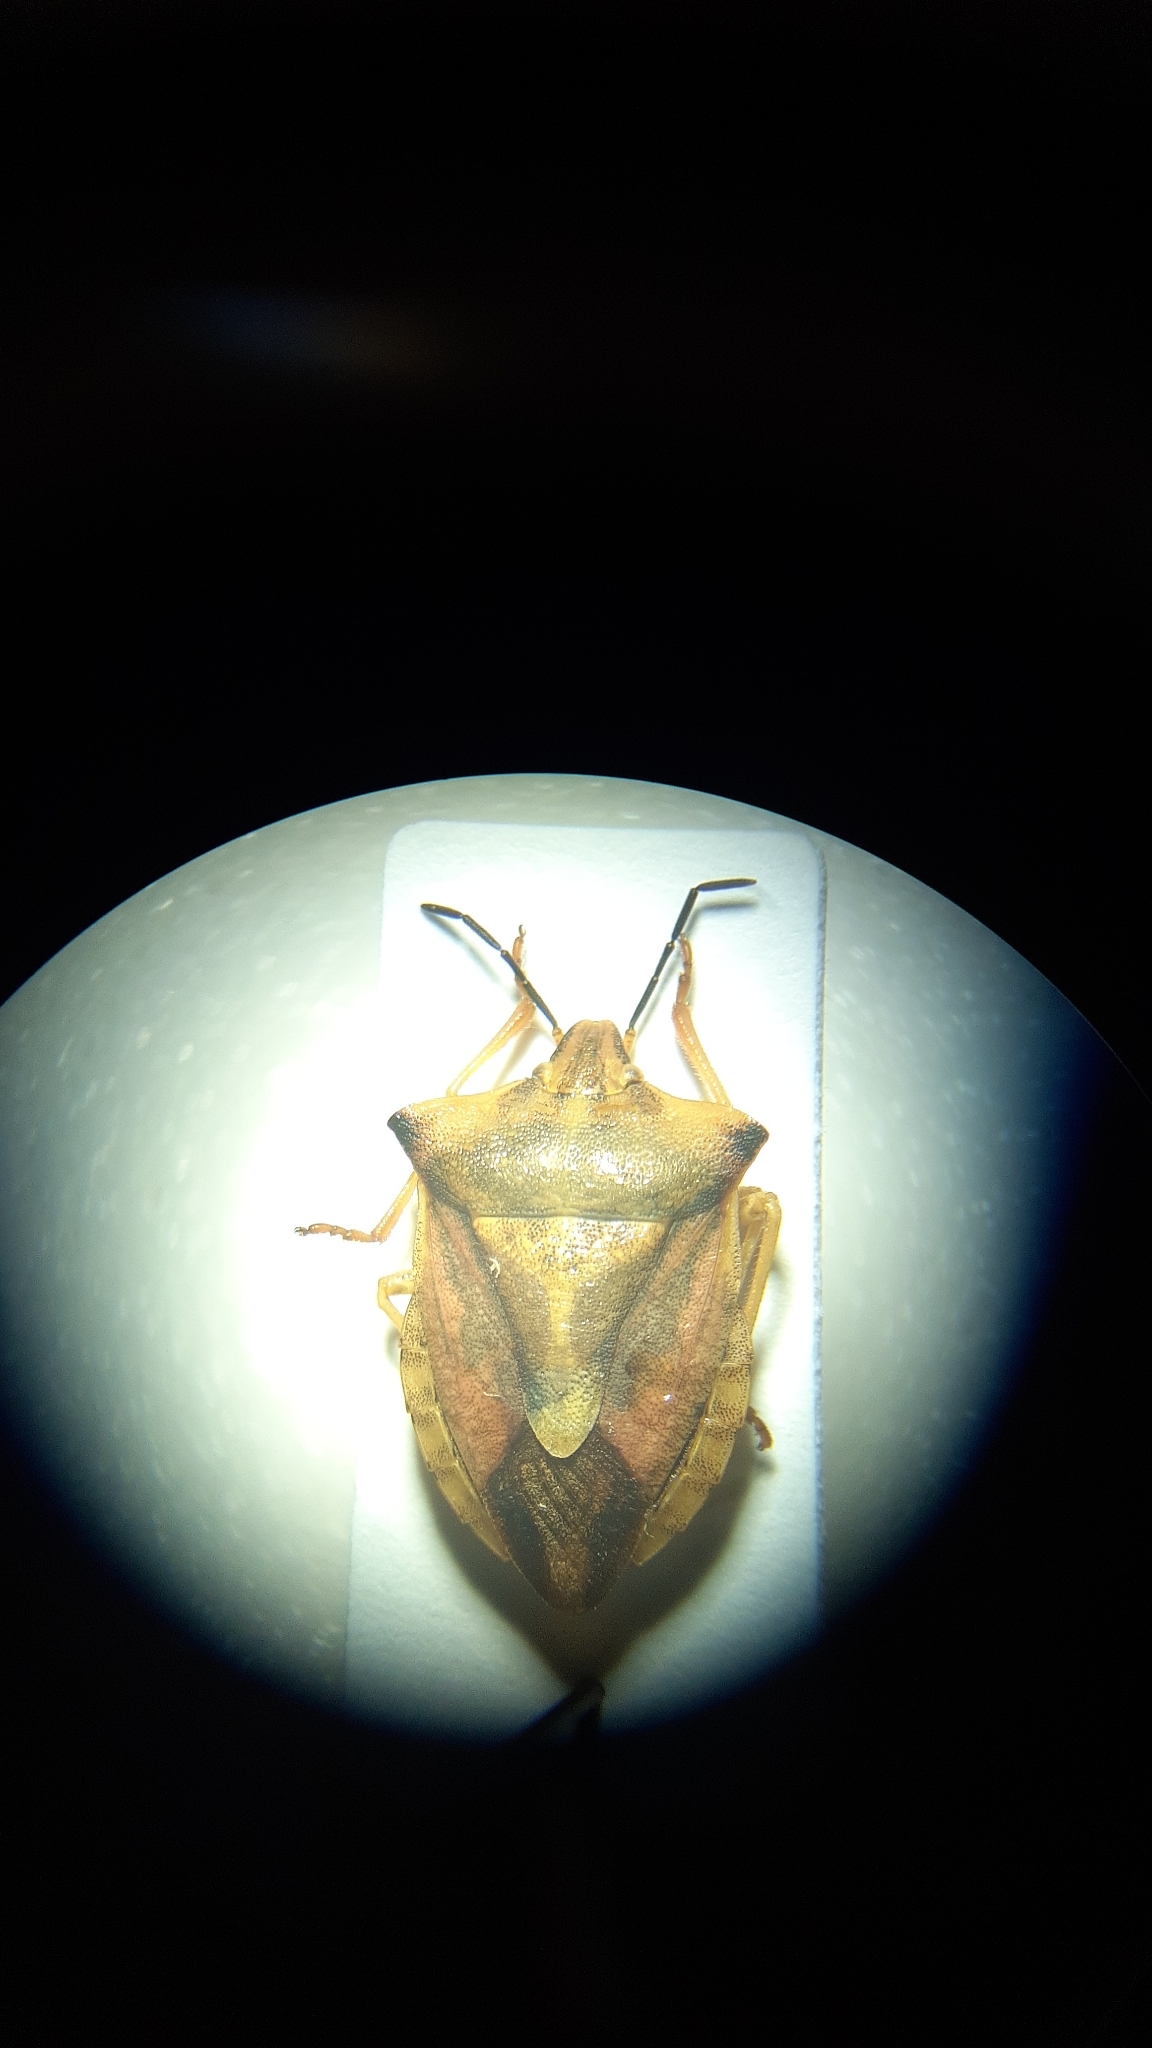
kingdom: Animalia
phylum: Arthropoda
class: Insecta
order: Hemiptera
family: Pentatomidae
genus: Carpocoris
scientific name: Carpocoris fuscispinus
